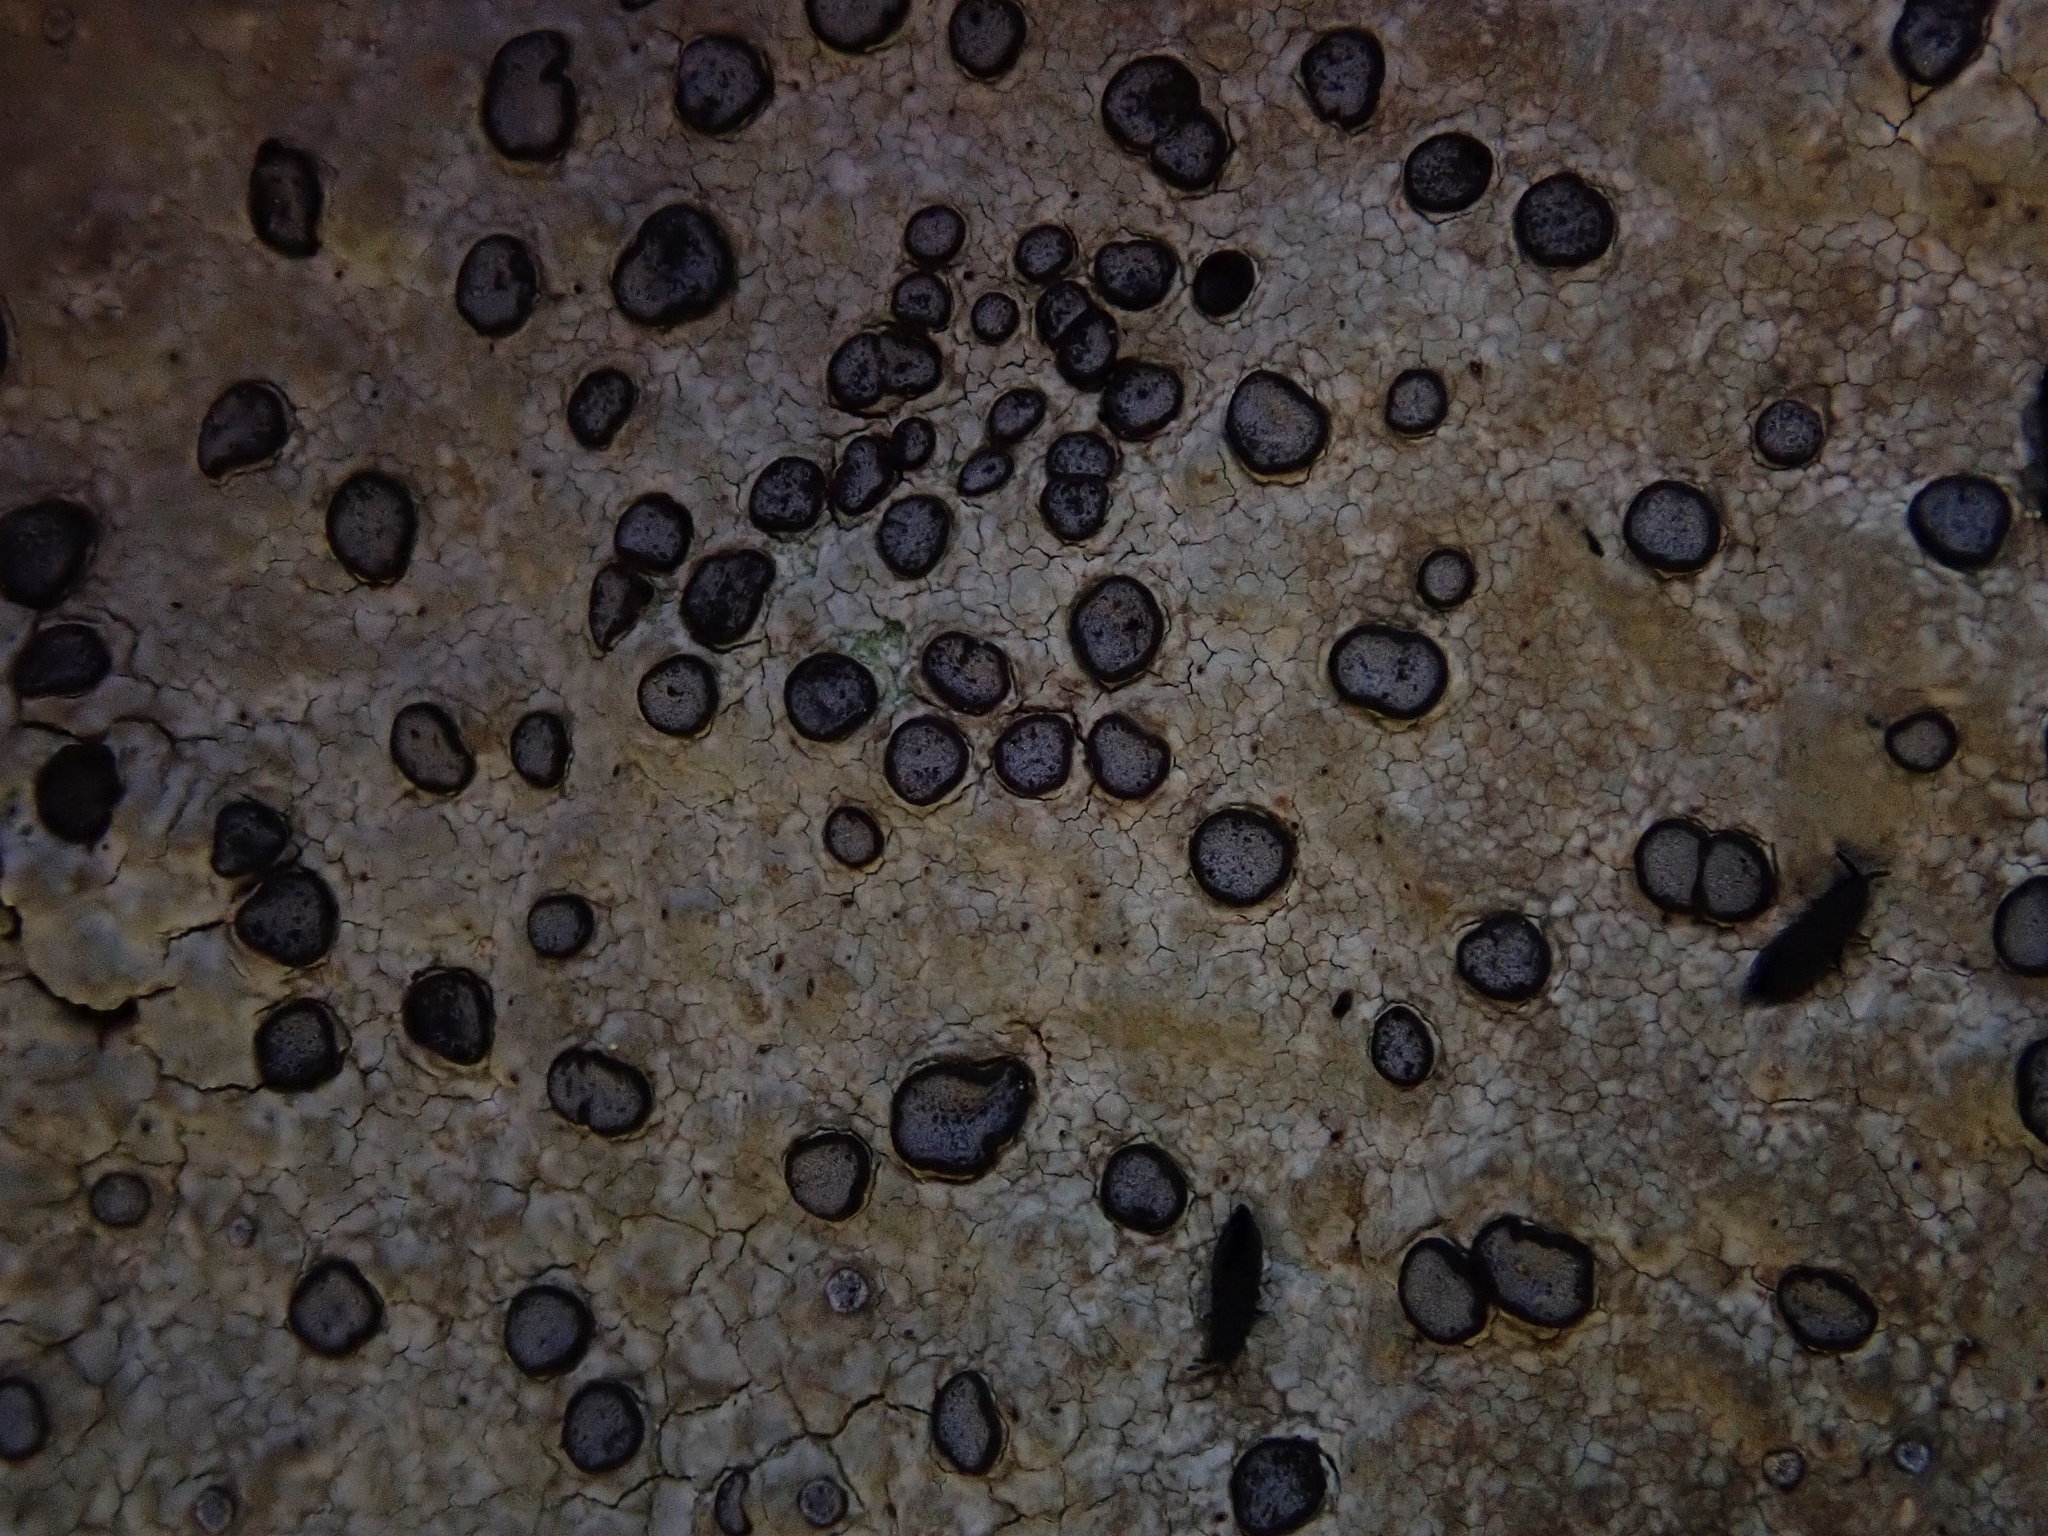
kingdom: Fungi
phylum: Ascomycota
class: Lecanoromycetes
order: Lecideales
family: Lecideaceae
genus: Porpidia
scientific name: Porpidia albocaerulescens
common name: Smokey-eyed boulder lichen
